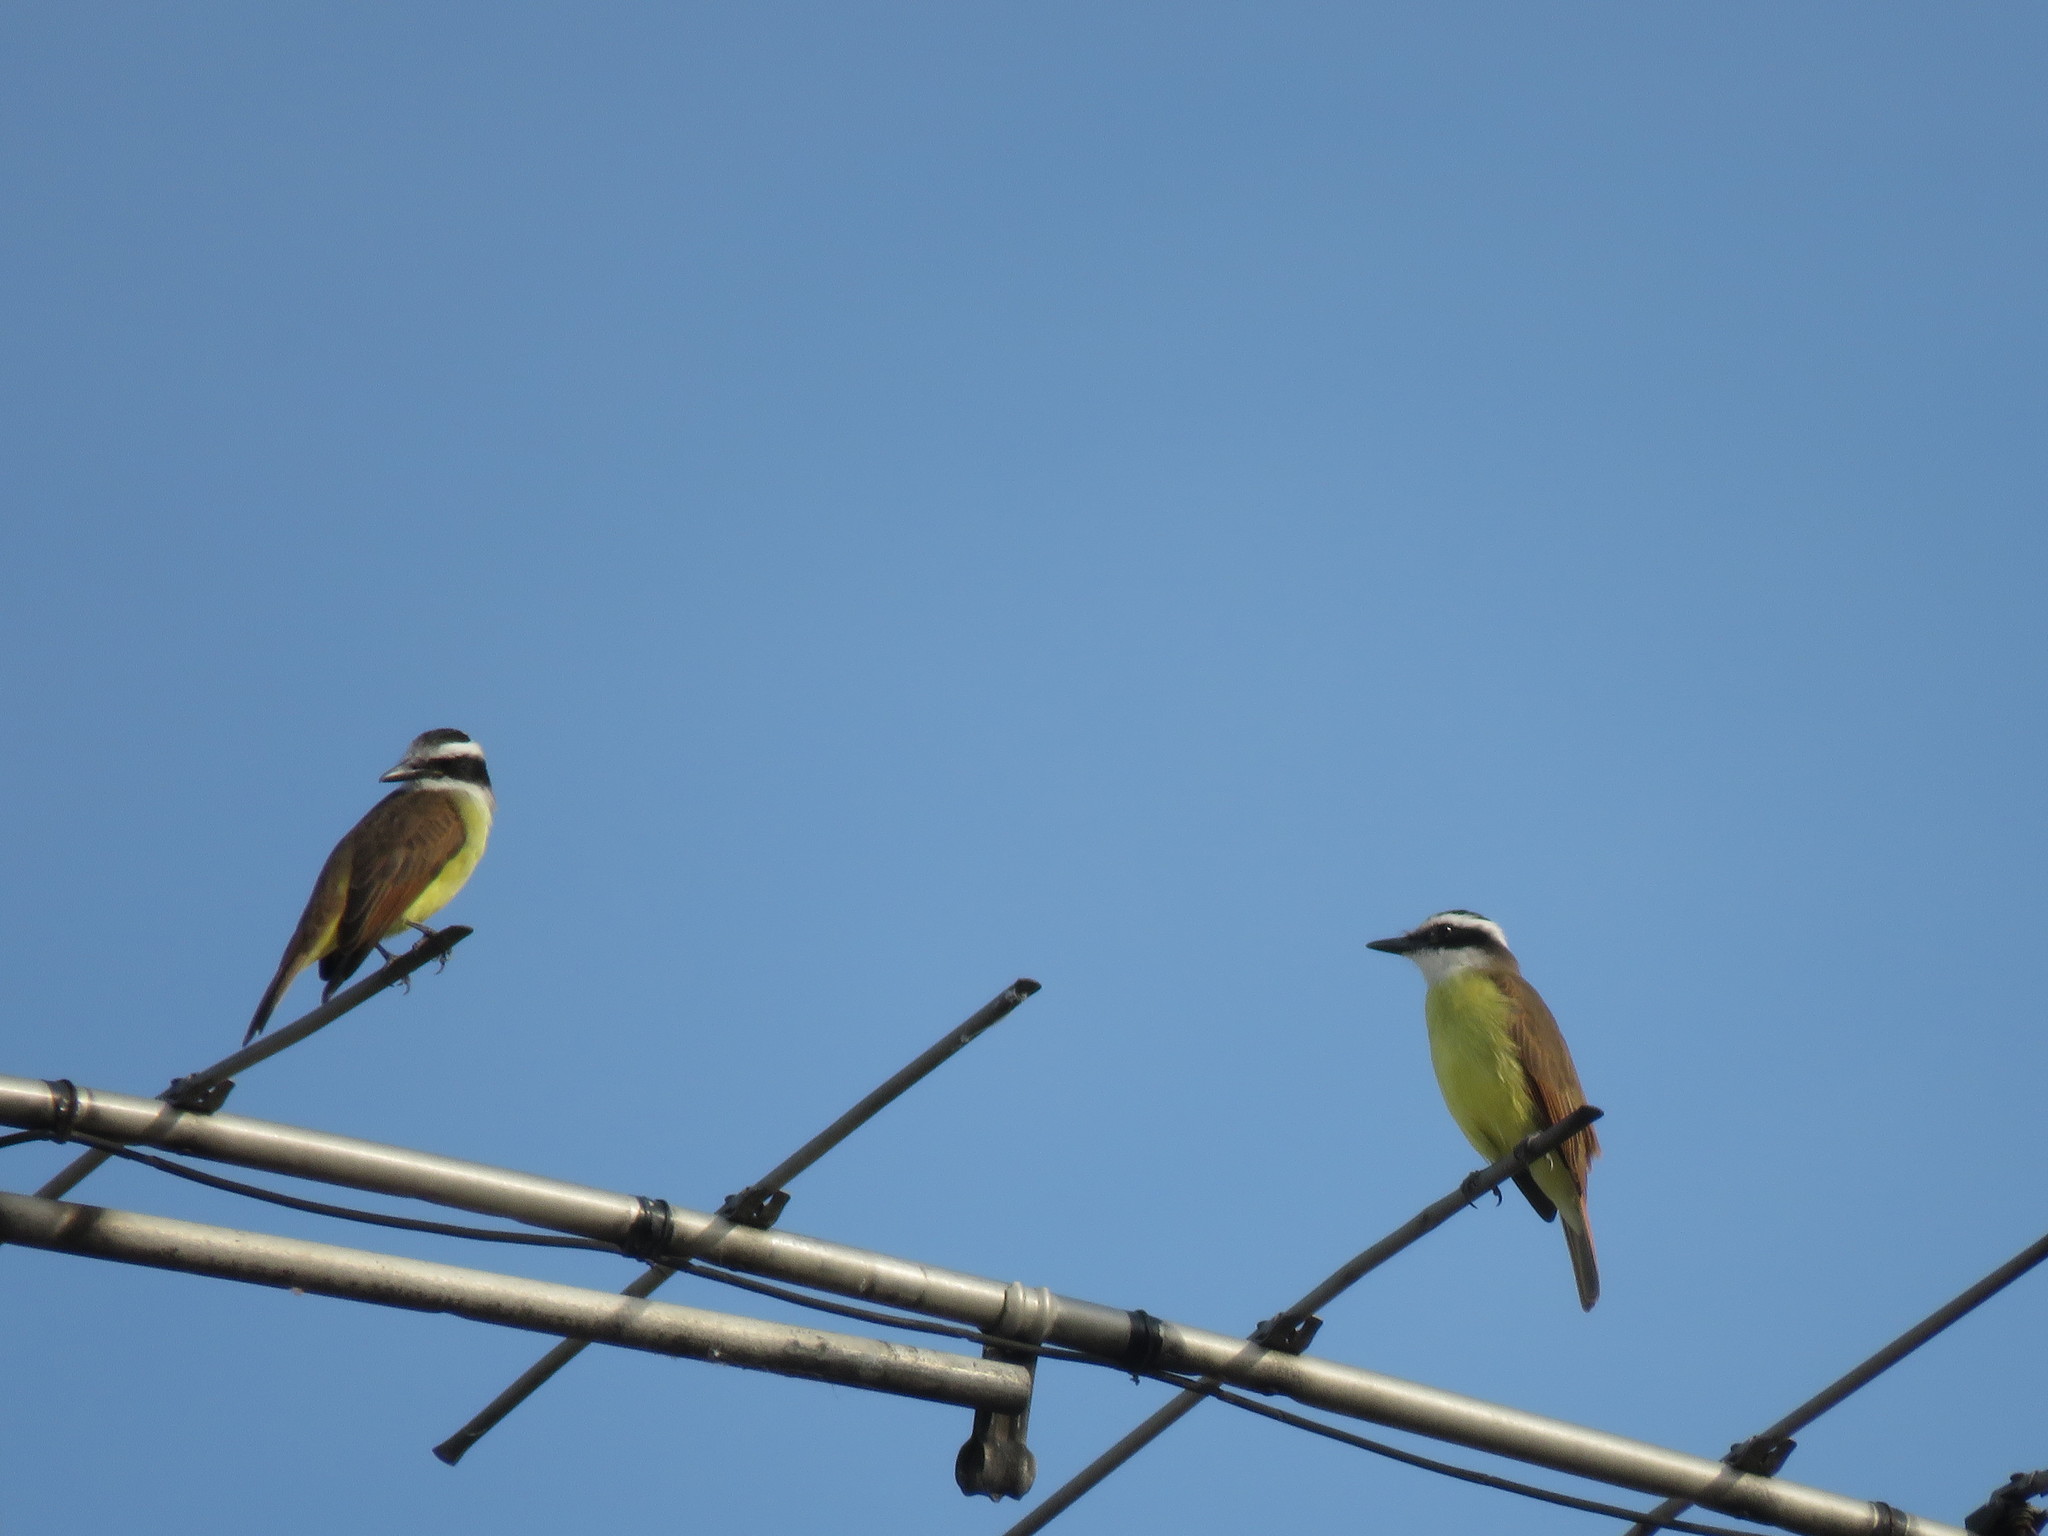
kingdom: Animalia
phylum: Chordata
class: Aves
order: Passeriformes
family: Tyrannidae
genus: Pitangus
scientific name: Pitangus sulphuratus
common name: Great kiskadee
